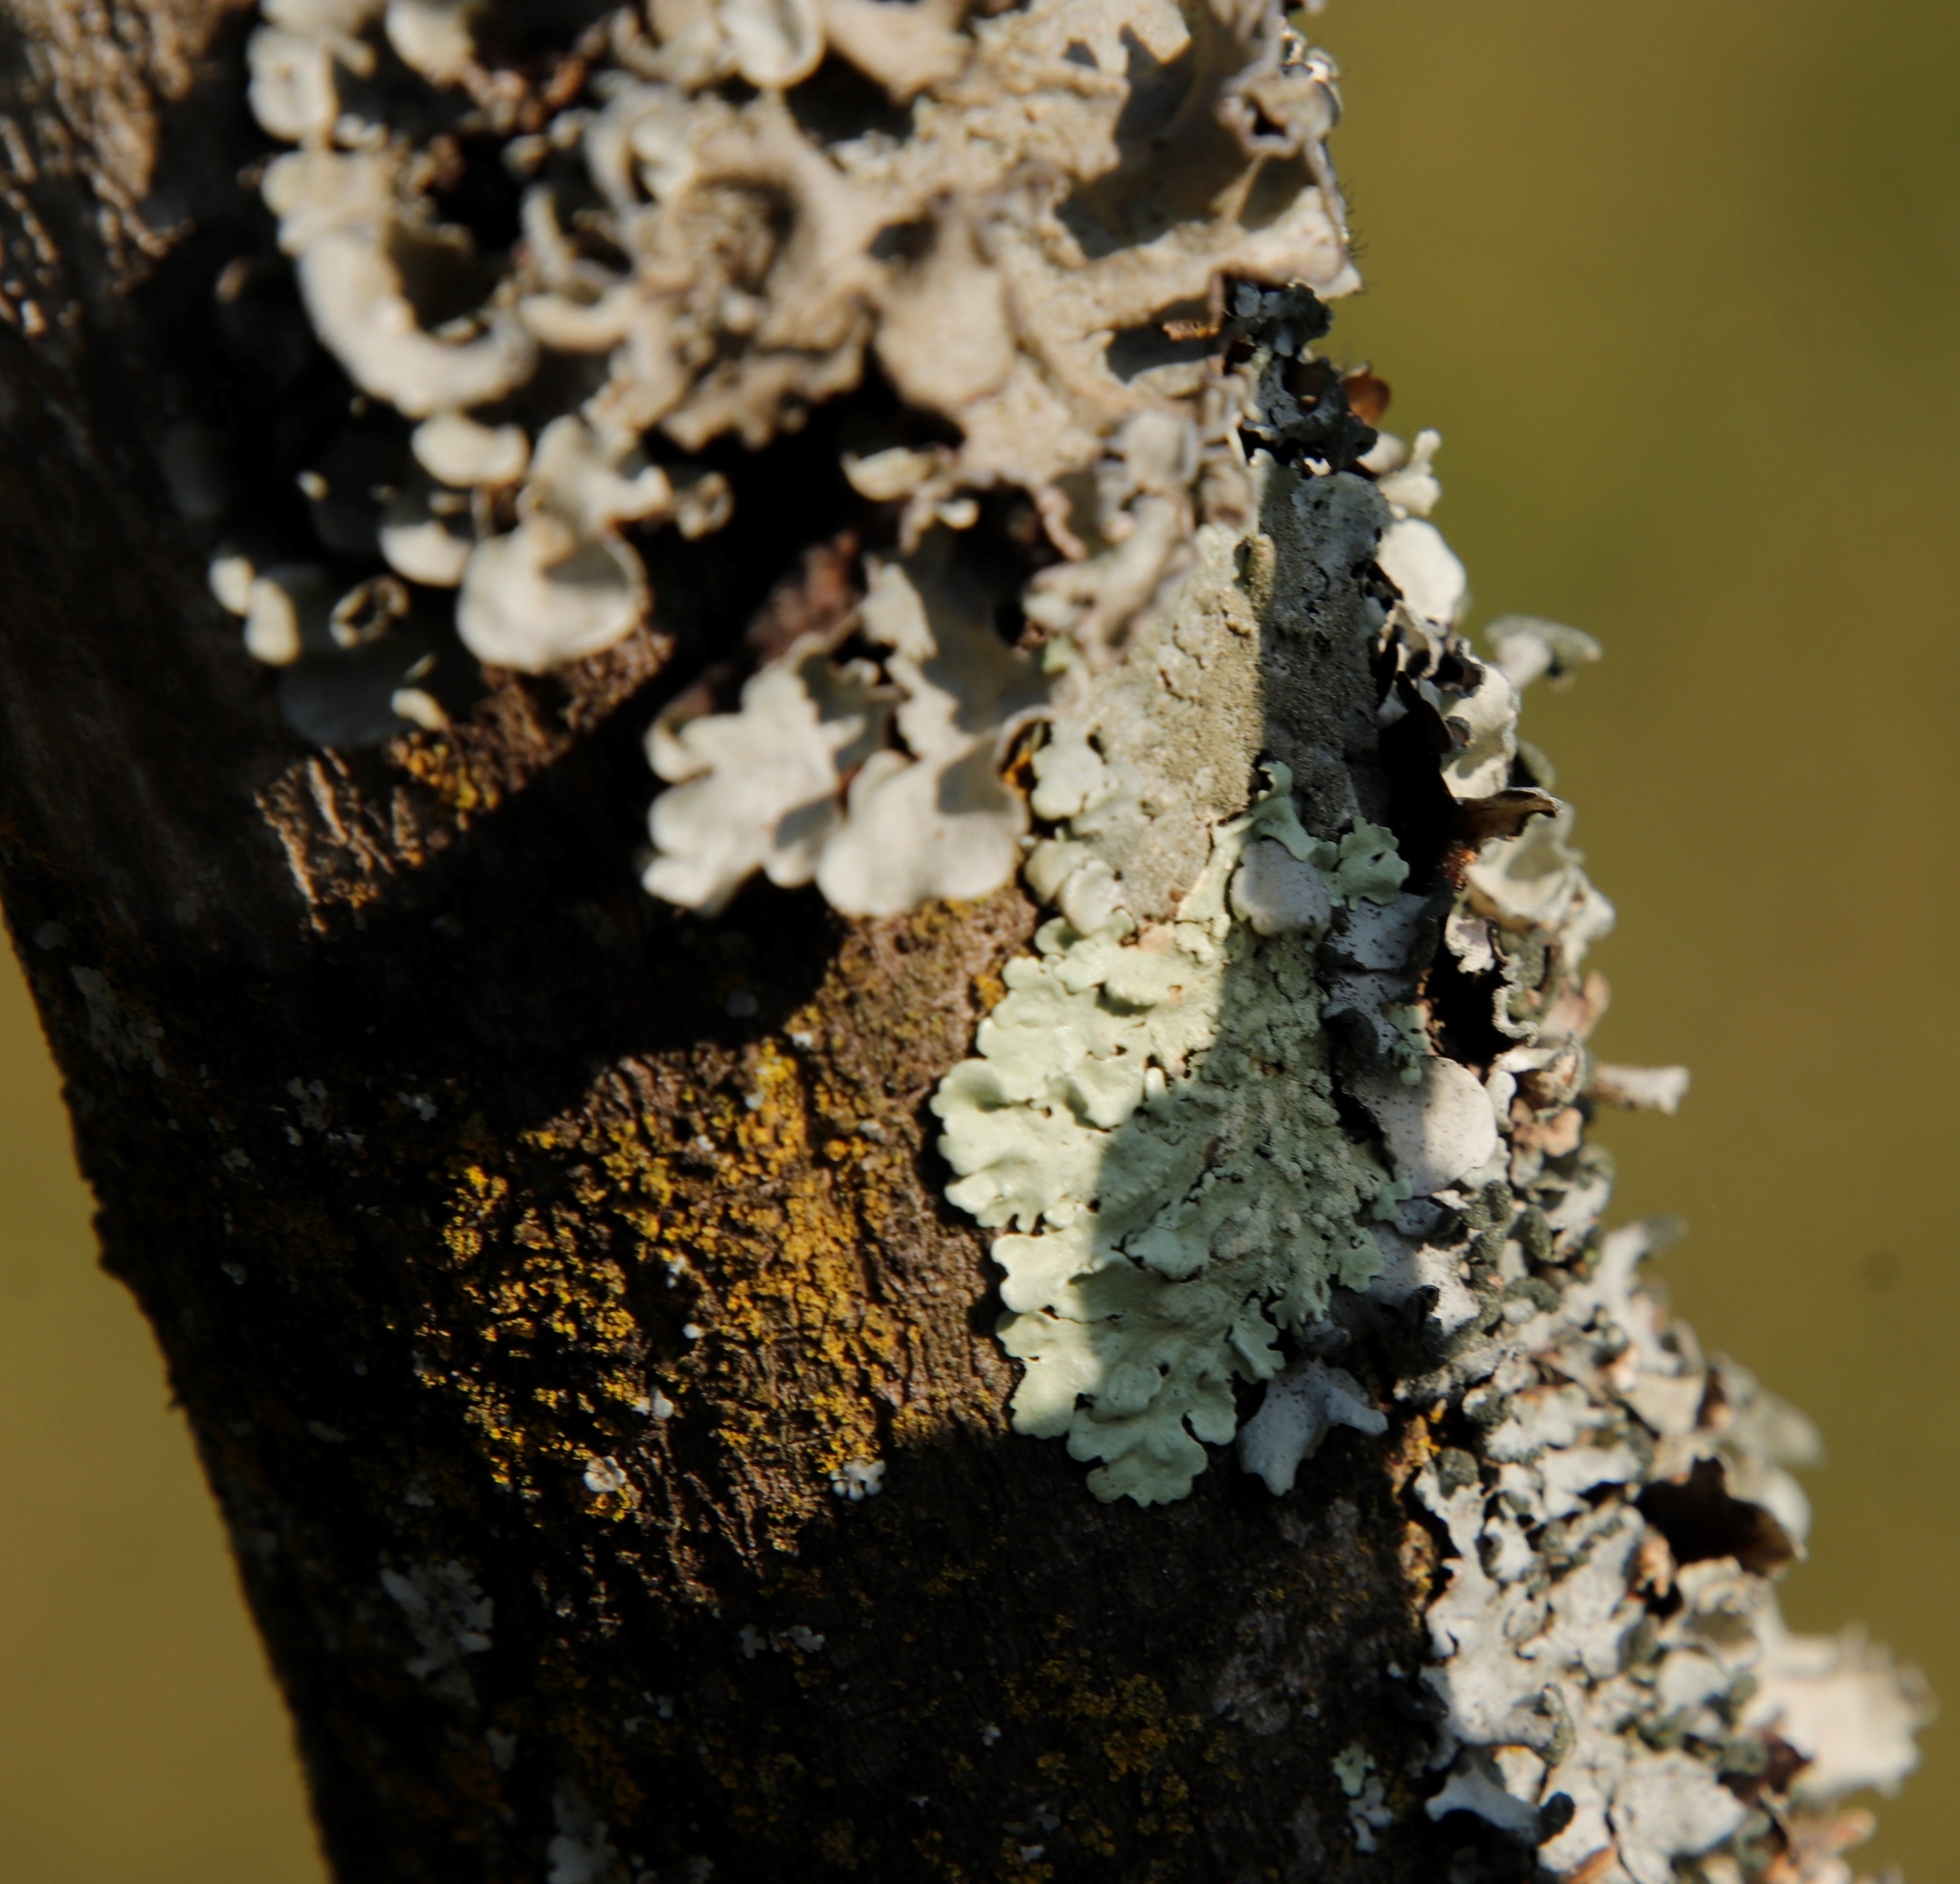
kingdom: Fungi
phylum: Ascomycota
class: Lecanoromycetes
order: Lecanorales
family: Parmeliaceae
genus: Flavoparmelia
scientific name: Flavoparmelia soredians
